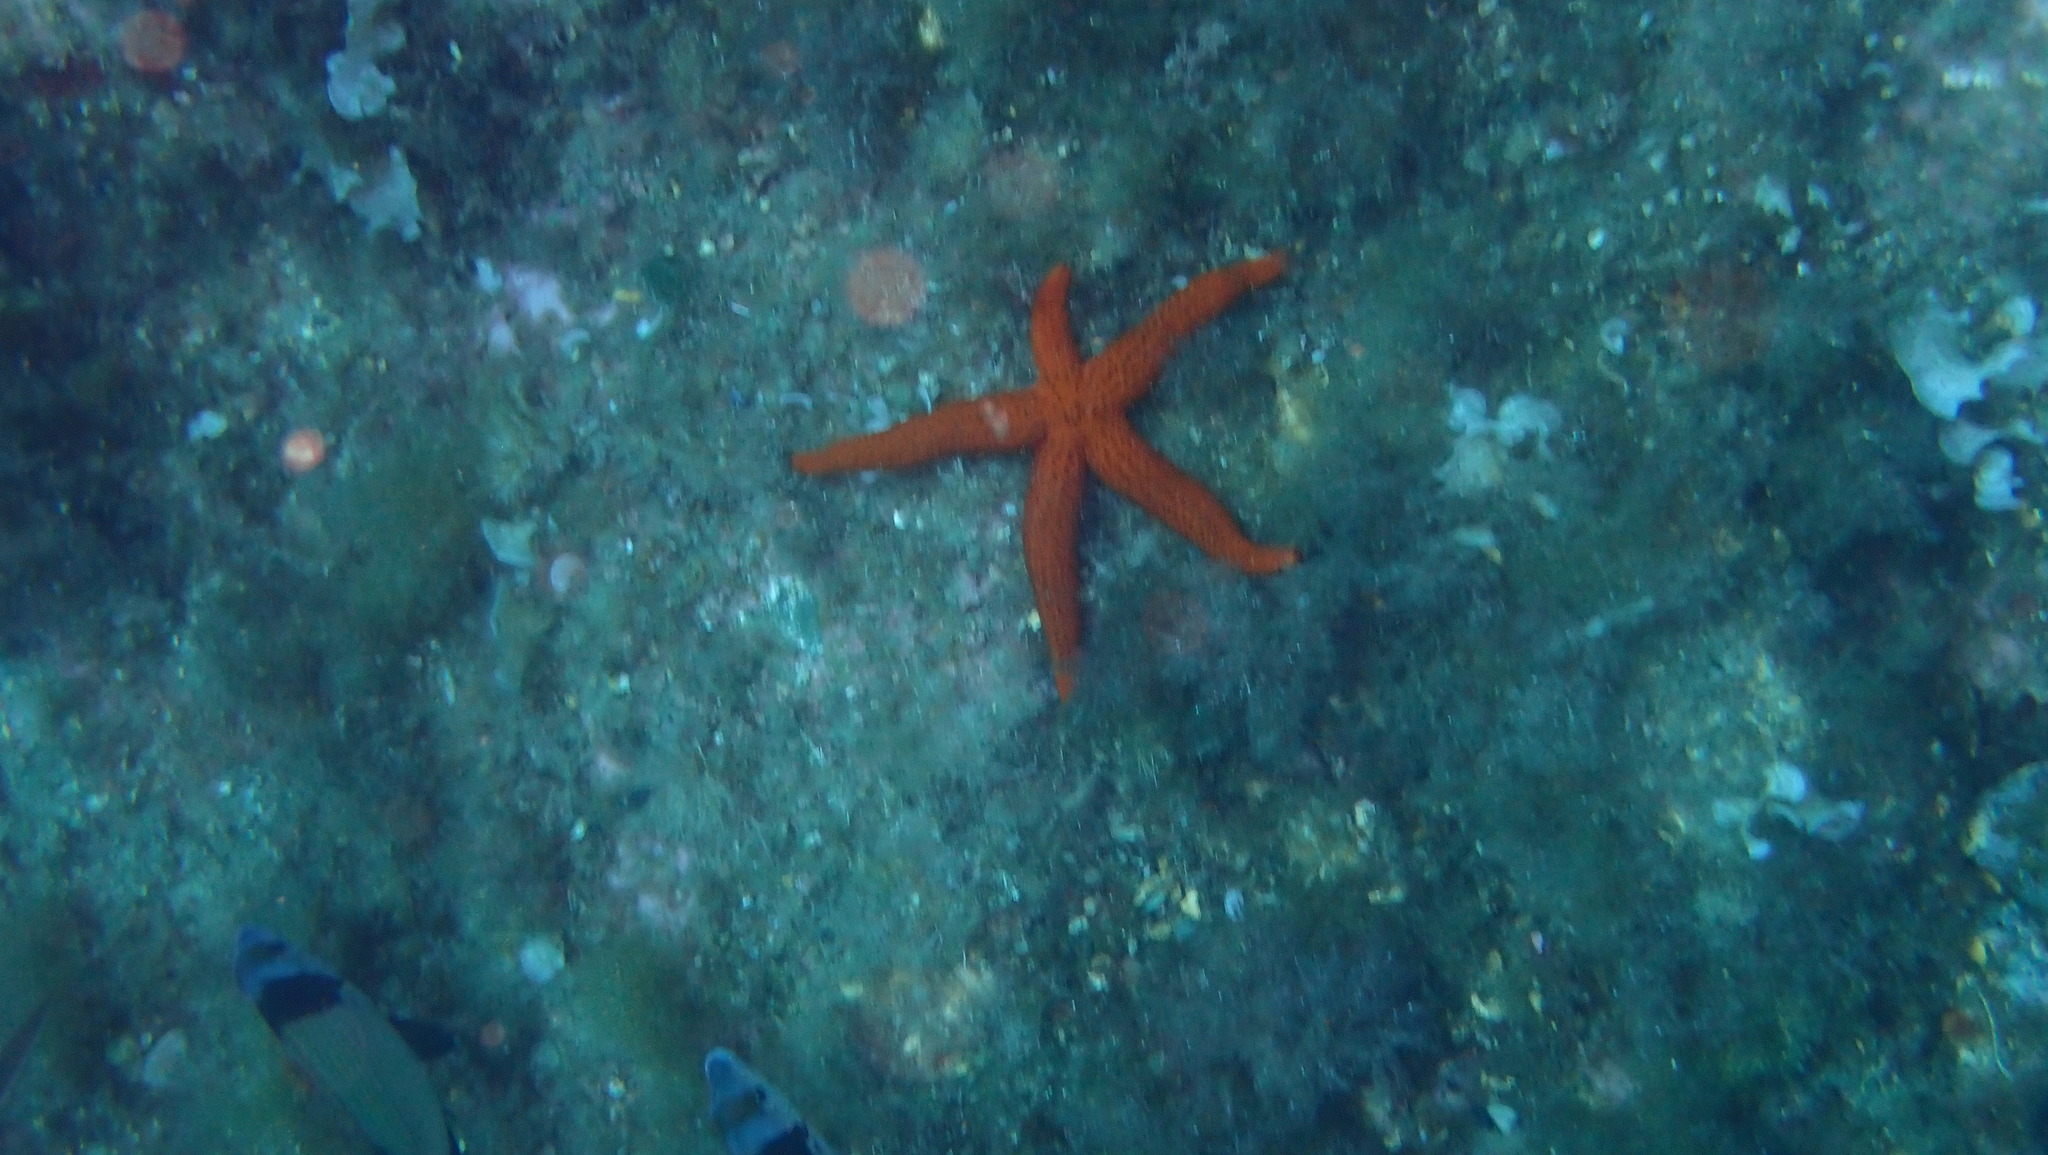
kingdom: Animalia
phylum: Echinodermata
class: Asteroidea
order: Spinulosida
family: Echinasteridae
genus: Echinaster
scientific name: Echinaster sepositus
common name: Red starfish
